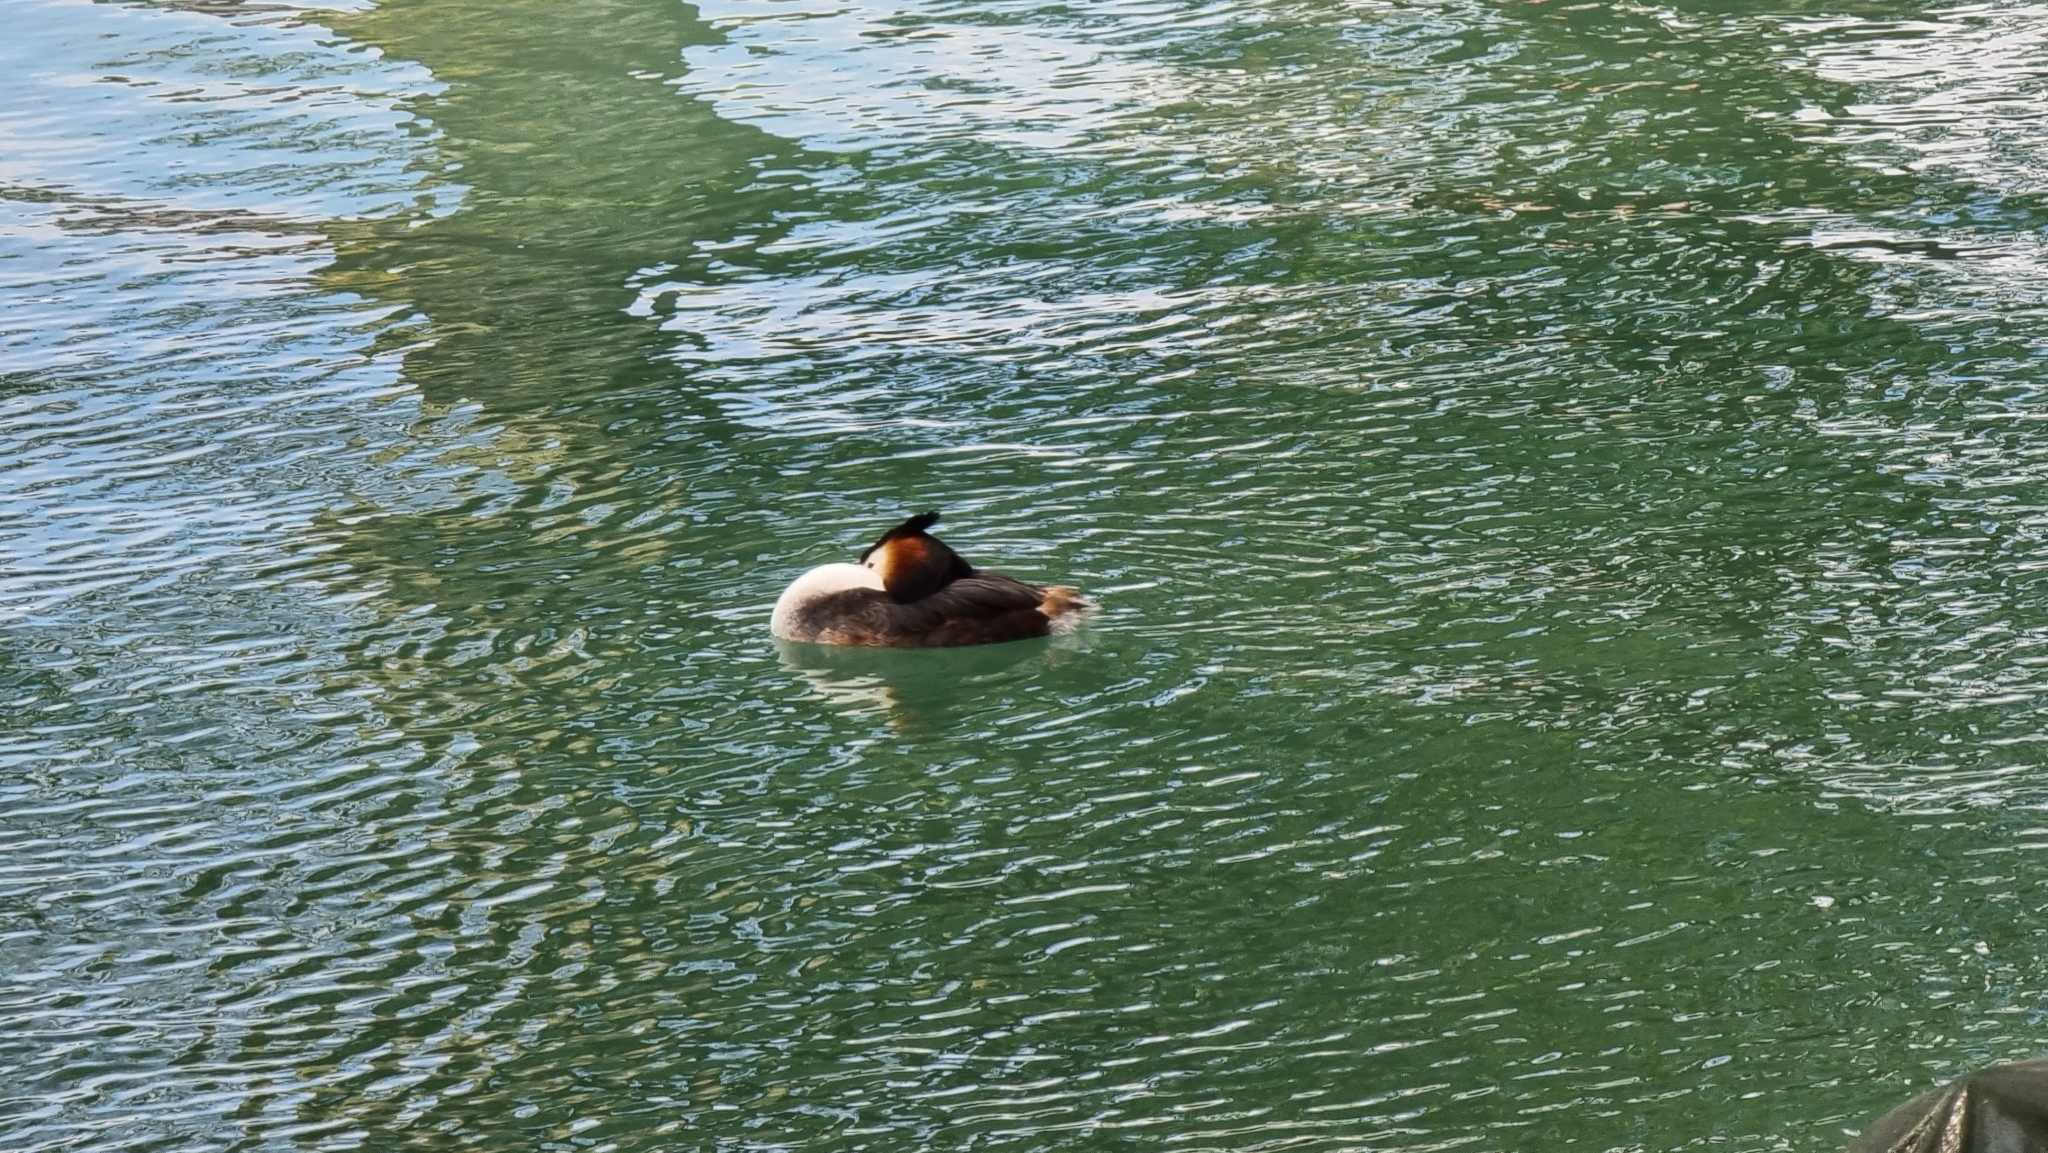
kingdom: Animalia
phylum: Chordata
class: Aves
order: Podicipediformes
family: Podicipedidae
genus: Podiceps
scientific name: Podiceps cristatus
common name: Great crested grebe
